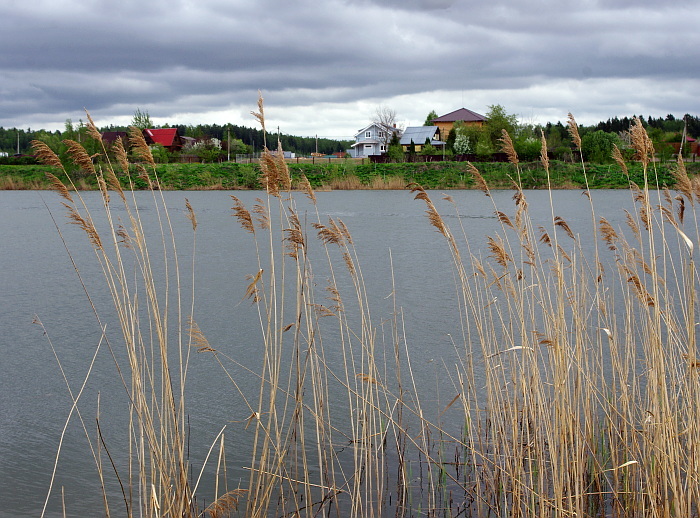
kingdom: Plantae
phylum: Tracheophyta
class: Liliopsida
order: Poales
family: Poaceae
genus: Phragmites
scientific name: Phragmites australis
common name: Common reed
